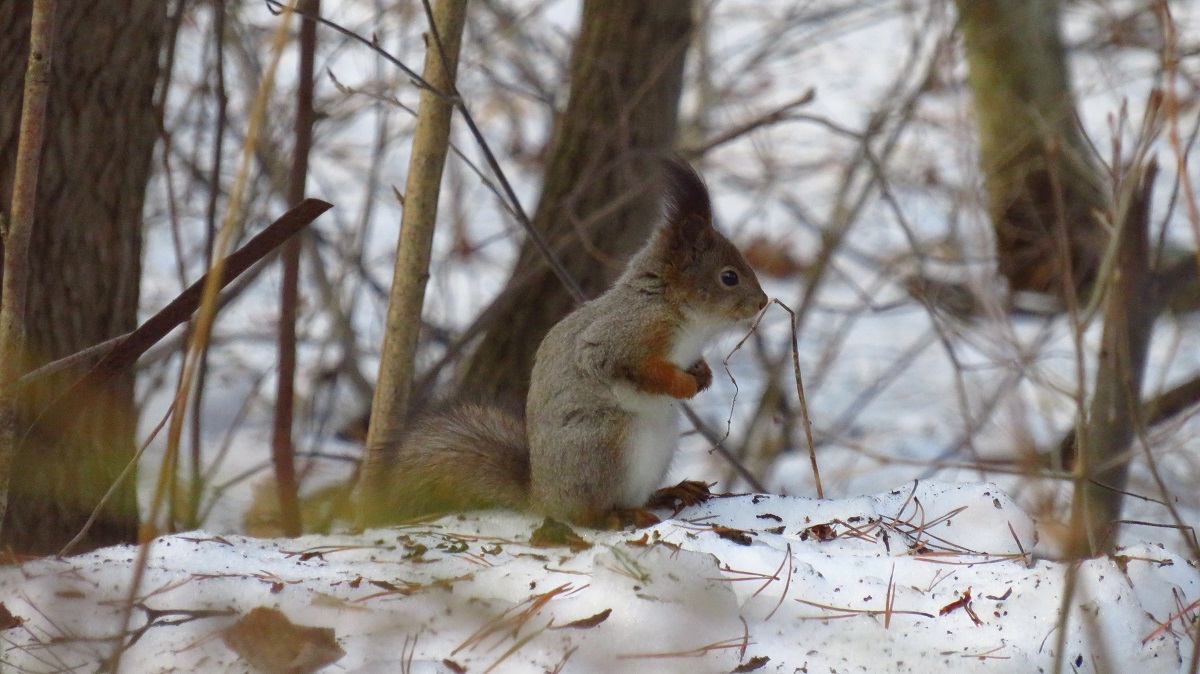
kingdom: Animalia
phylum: Chordata
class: Mammalia
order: Rodentia
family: Sciuridae
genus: Sciurus
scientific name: Sciurus vulgaris
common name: Eurasian red squirrel
